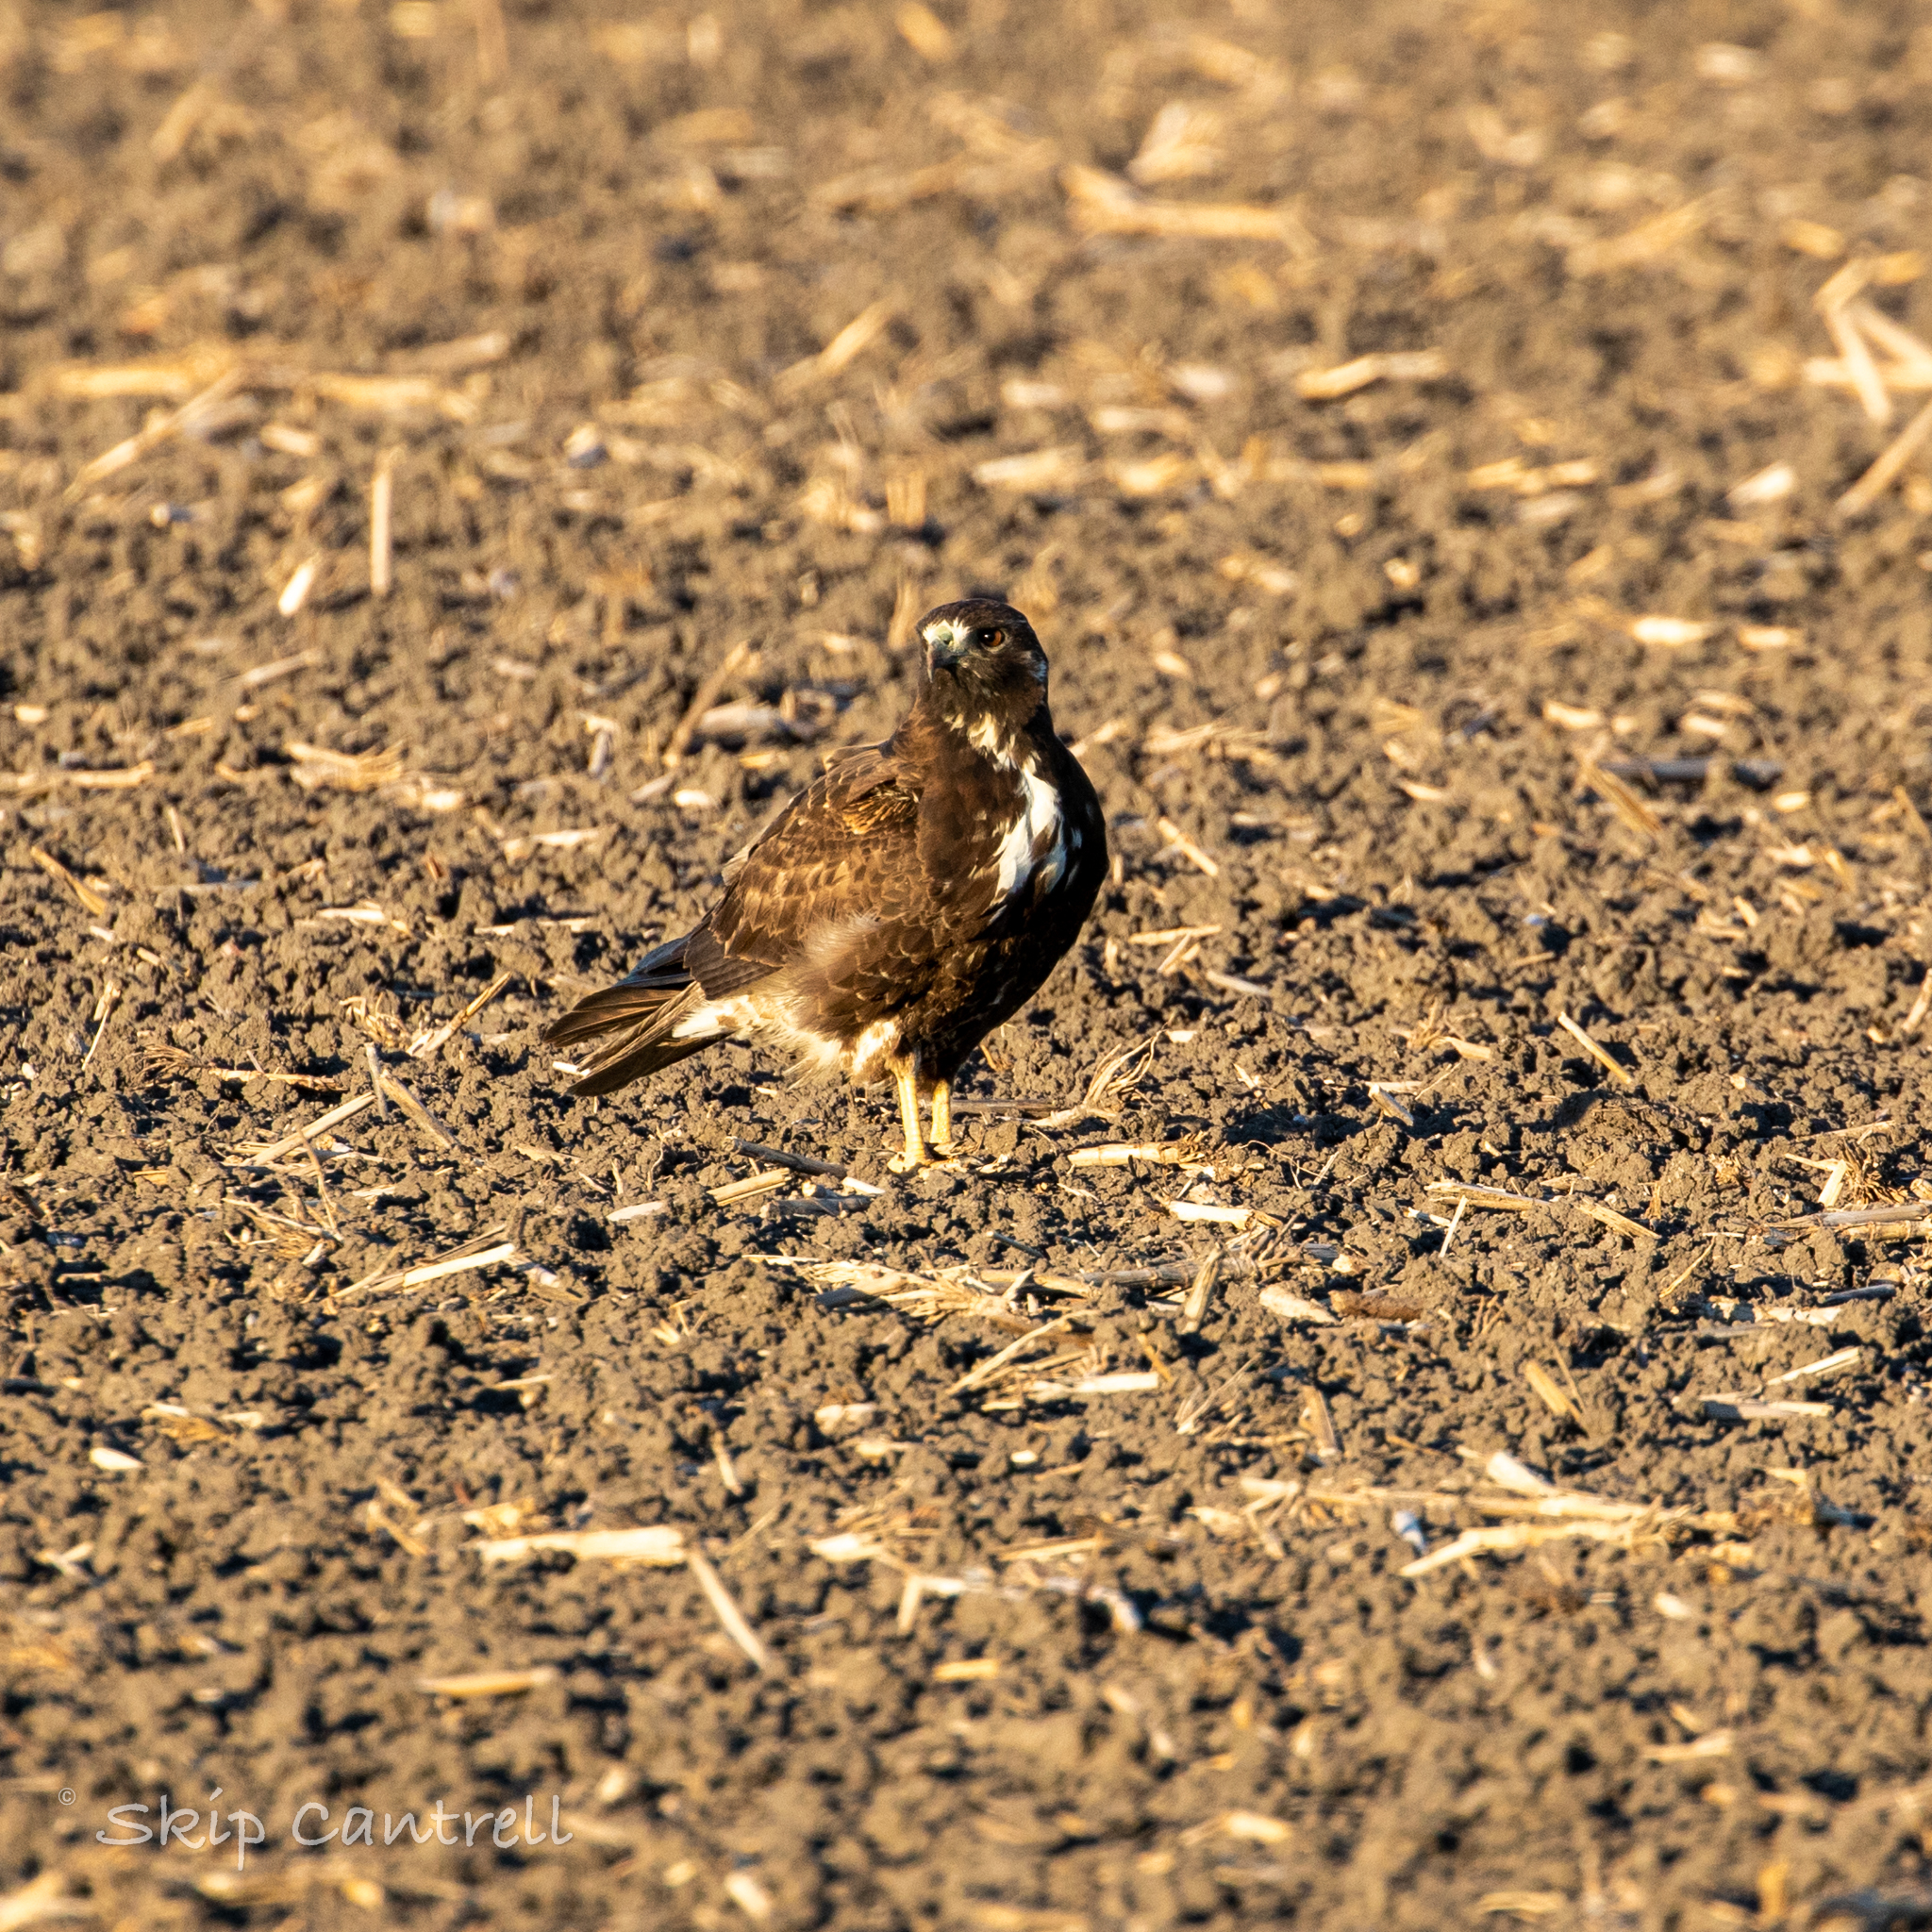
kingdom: Animalia
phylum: Chordata
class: Aves
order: Accipitriformes
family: Accipitridae
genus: Buteo
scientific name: Buteo albicaudatus
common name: White-tailed hawk
